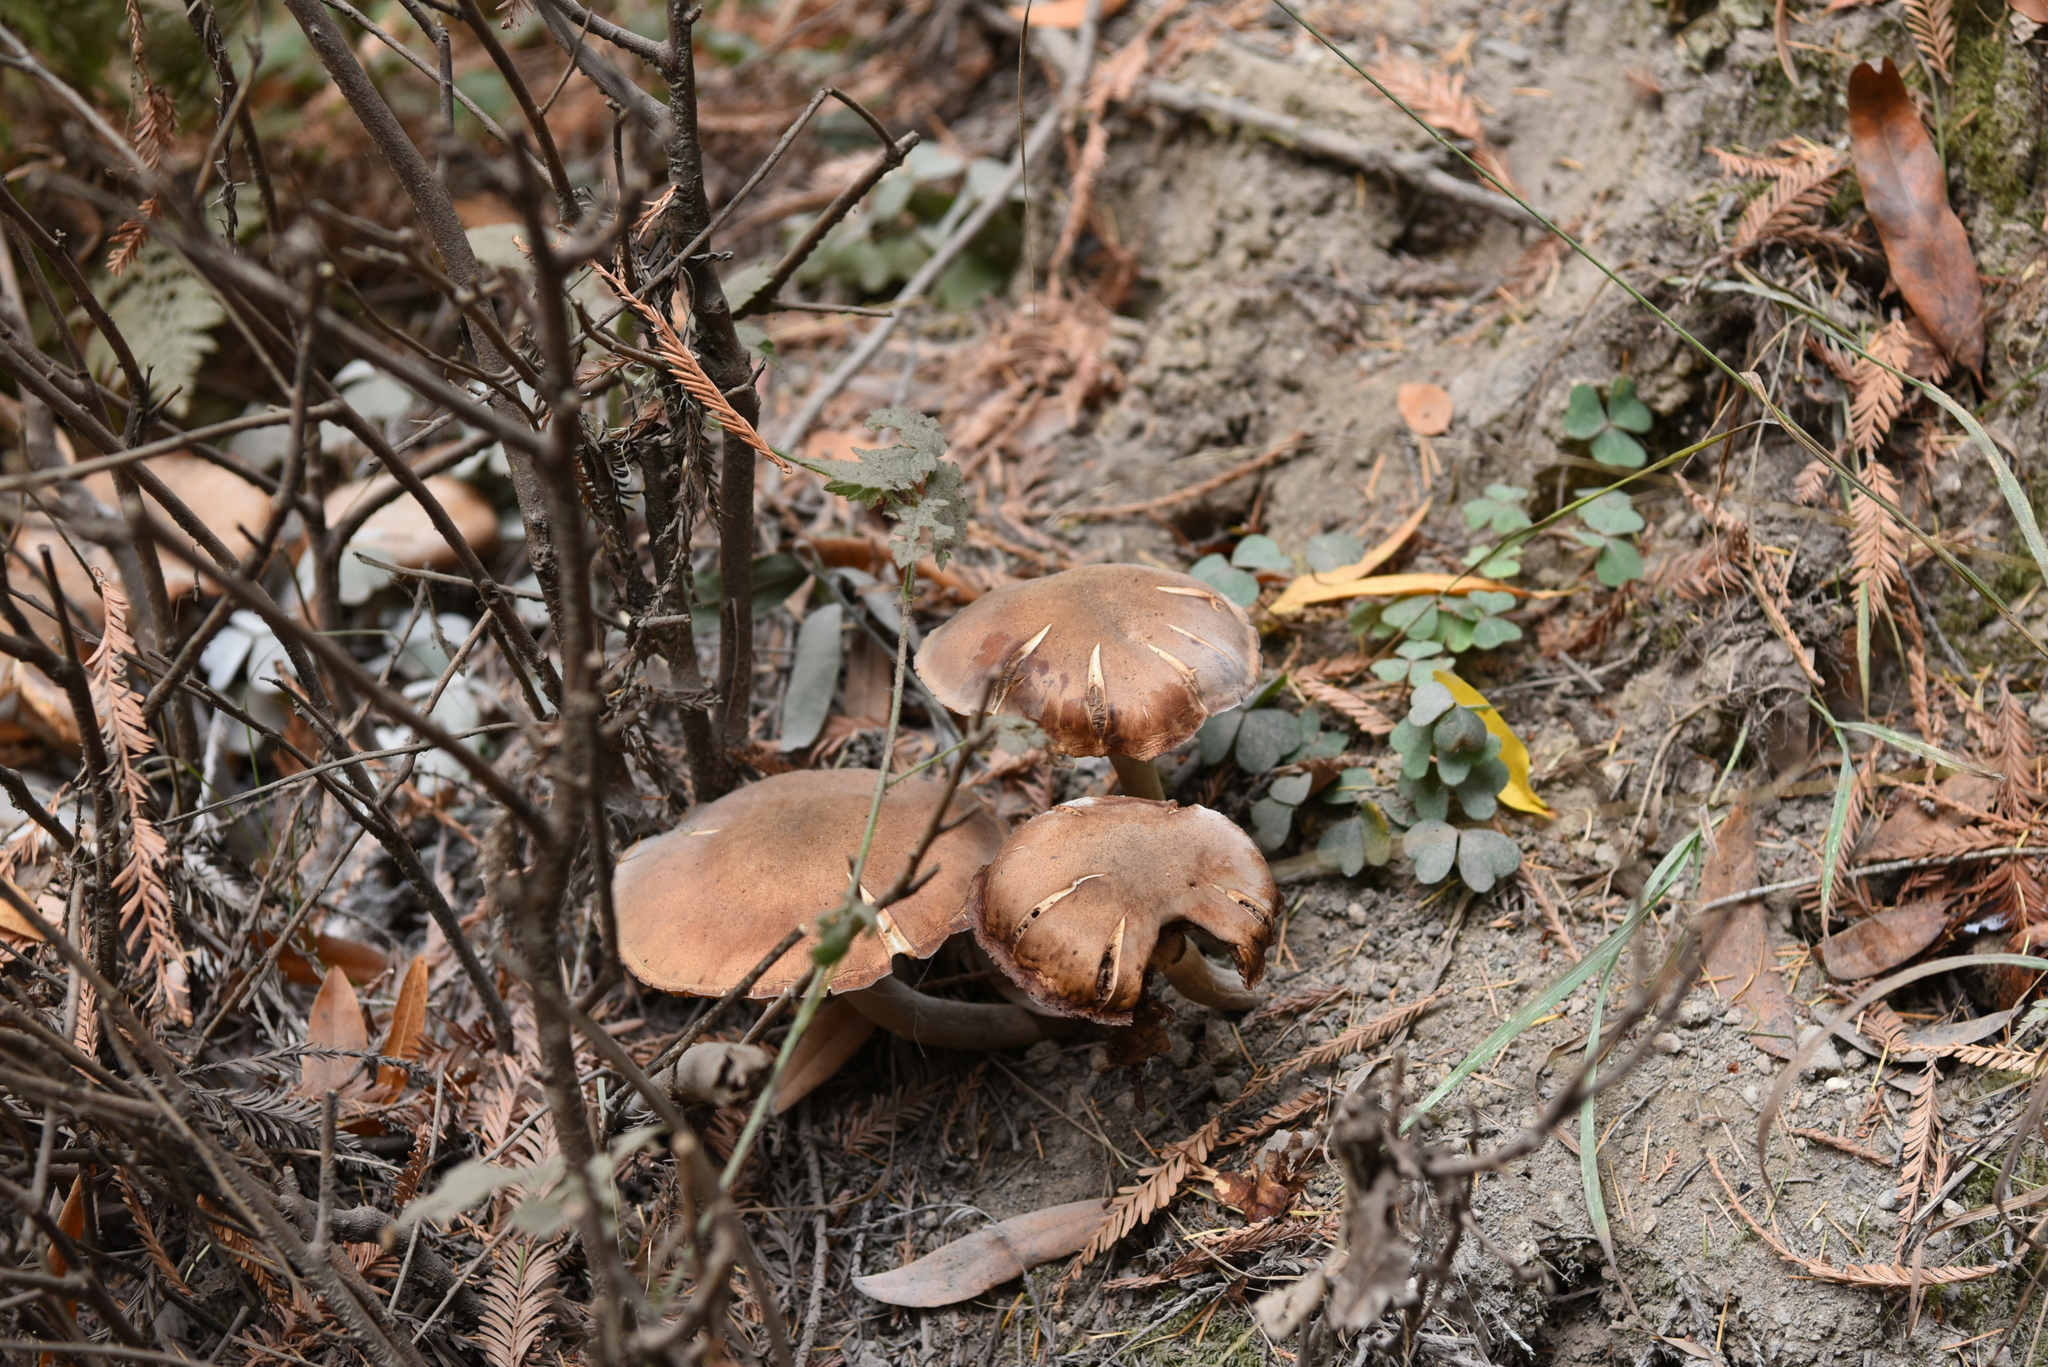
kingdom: Fungi
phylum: Basidiomycota
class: Agaricomycetes
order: Agaricales
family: Physalacriaceae
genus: Armillaria
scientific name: Armillaria mellea
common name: Honey fungus
